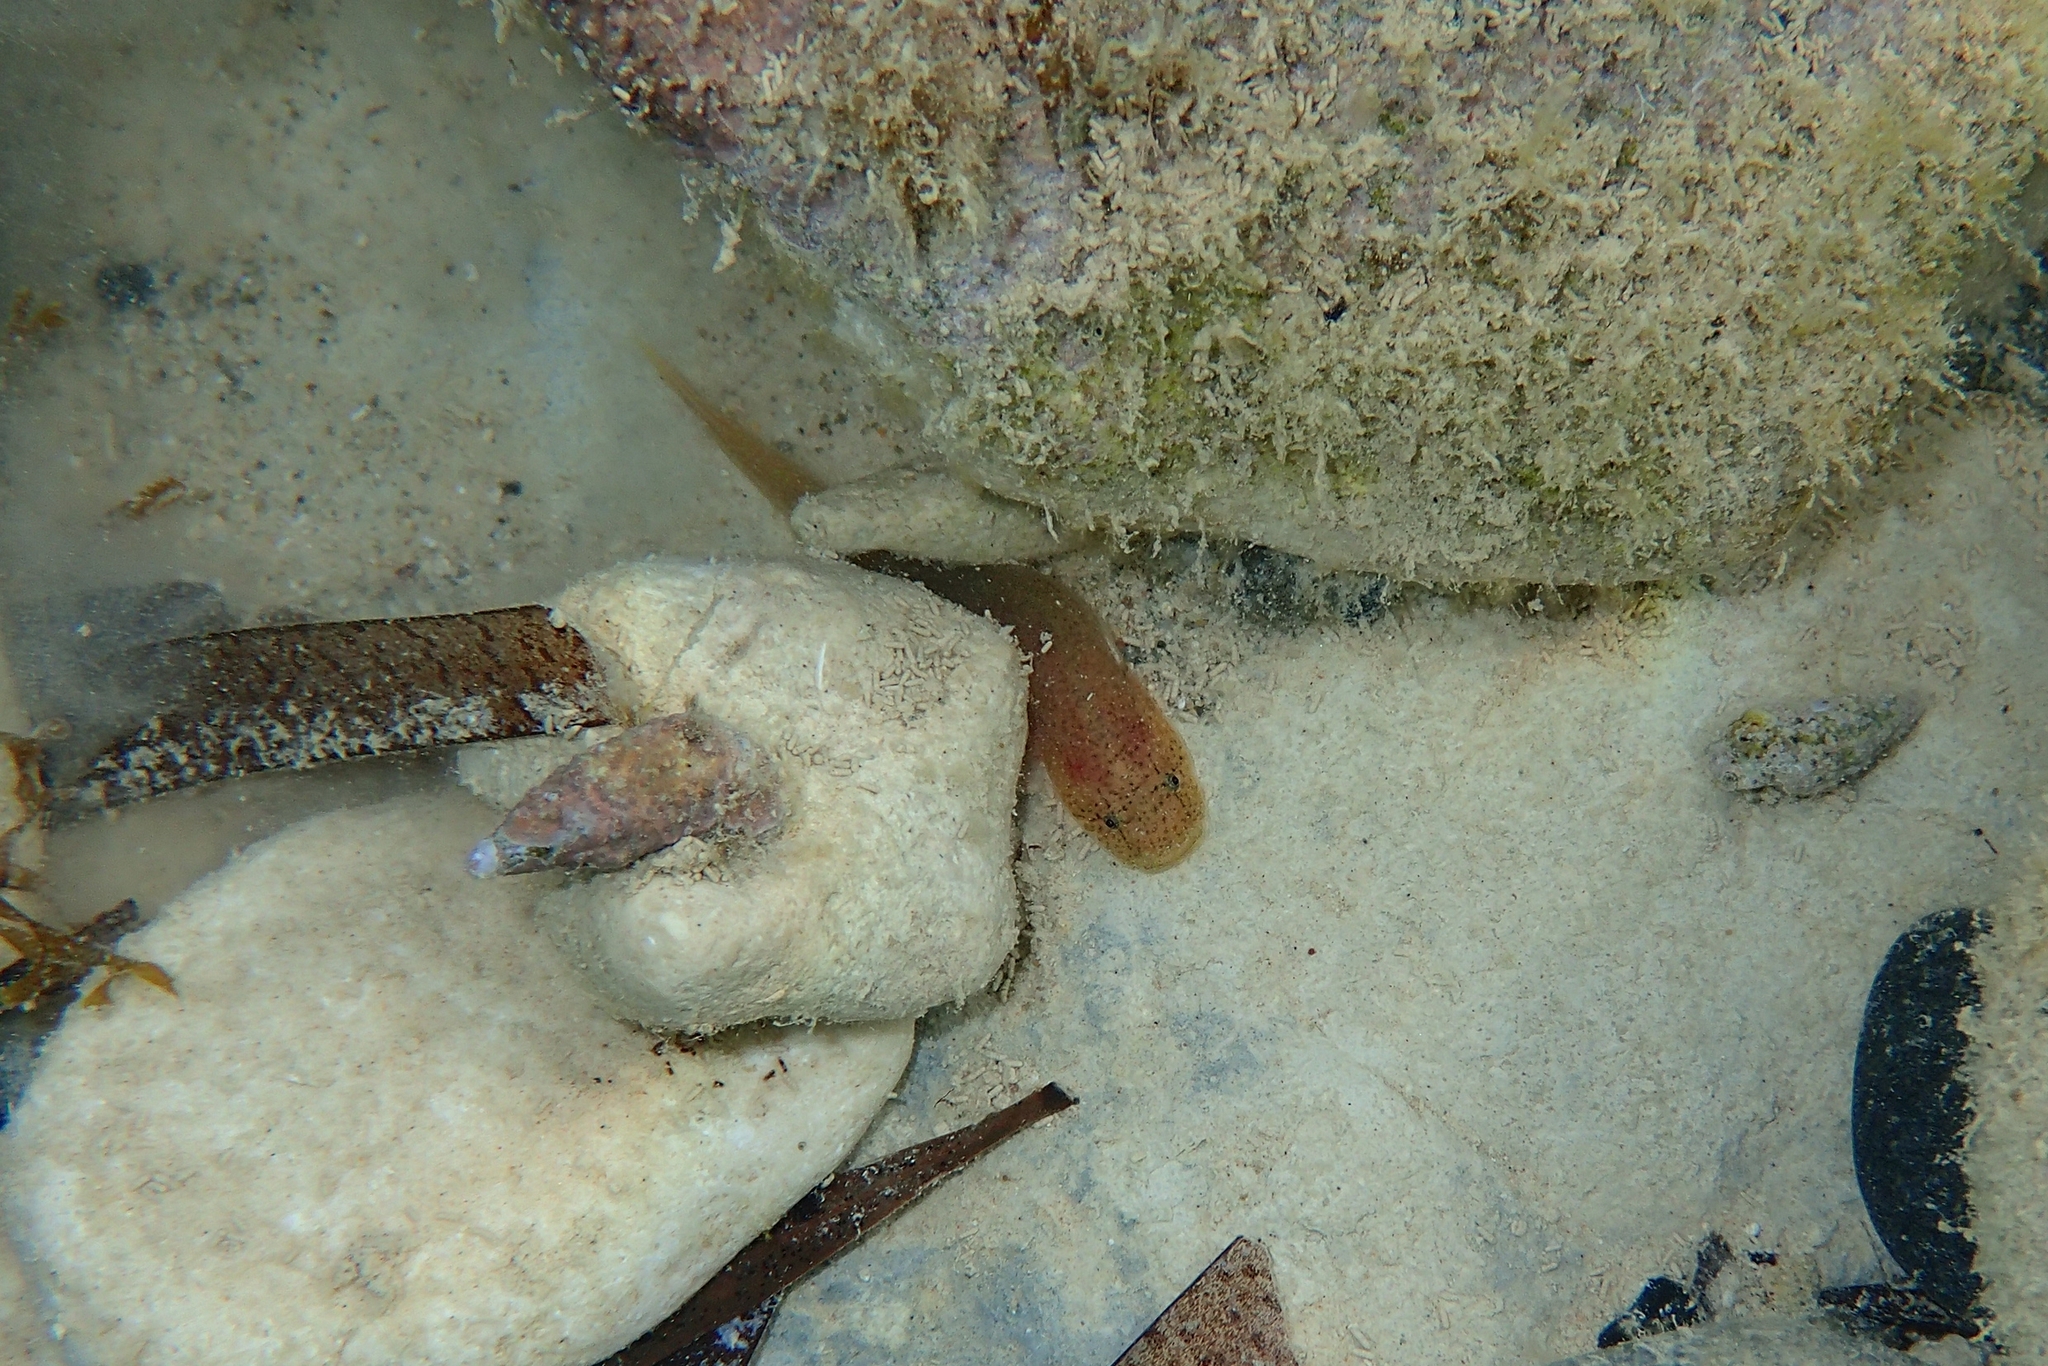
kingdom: Animalia
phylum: Chordata
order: Gobiesociformes
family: Gobiesocidae
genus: Gouania
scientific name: Gouania orientalis
